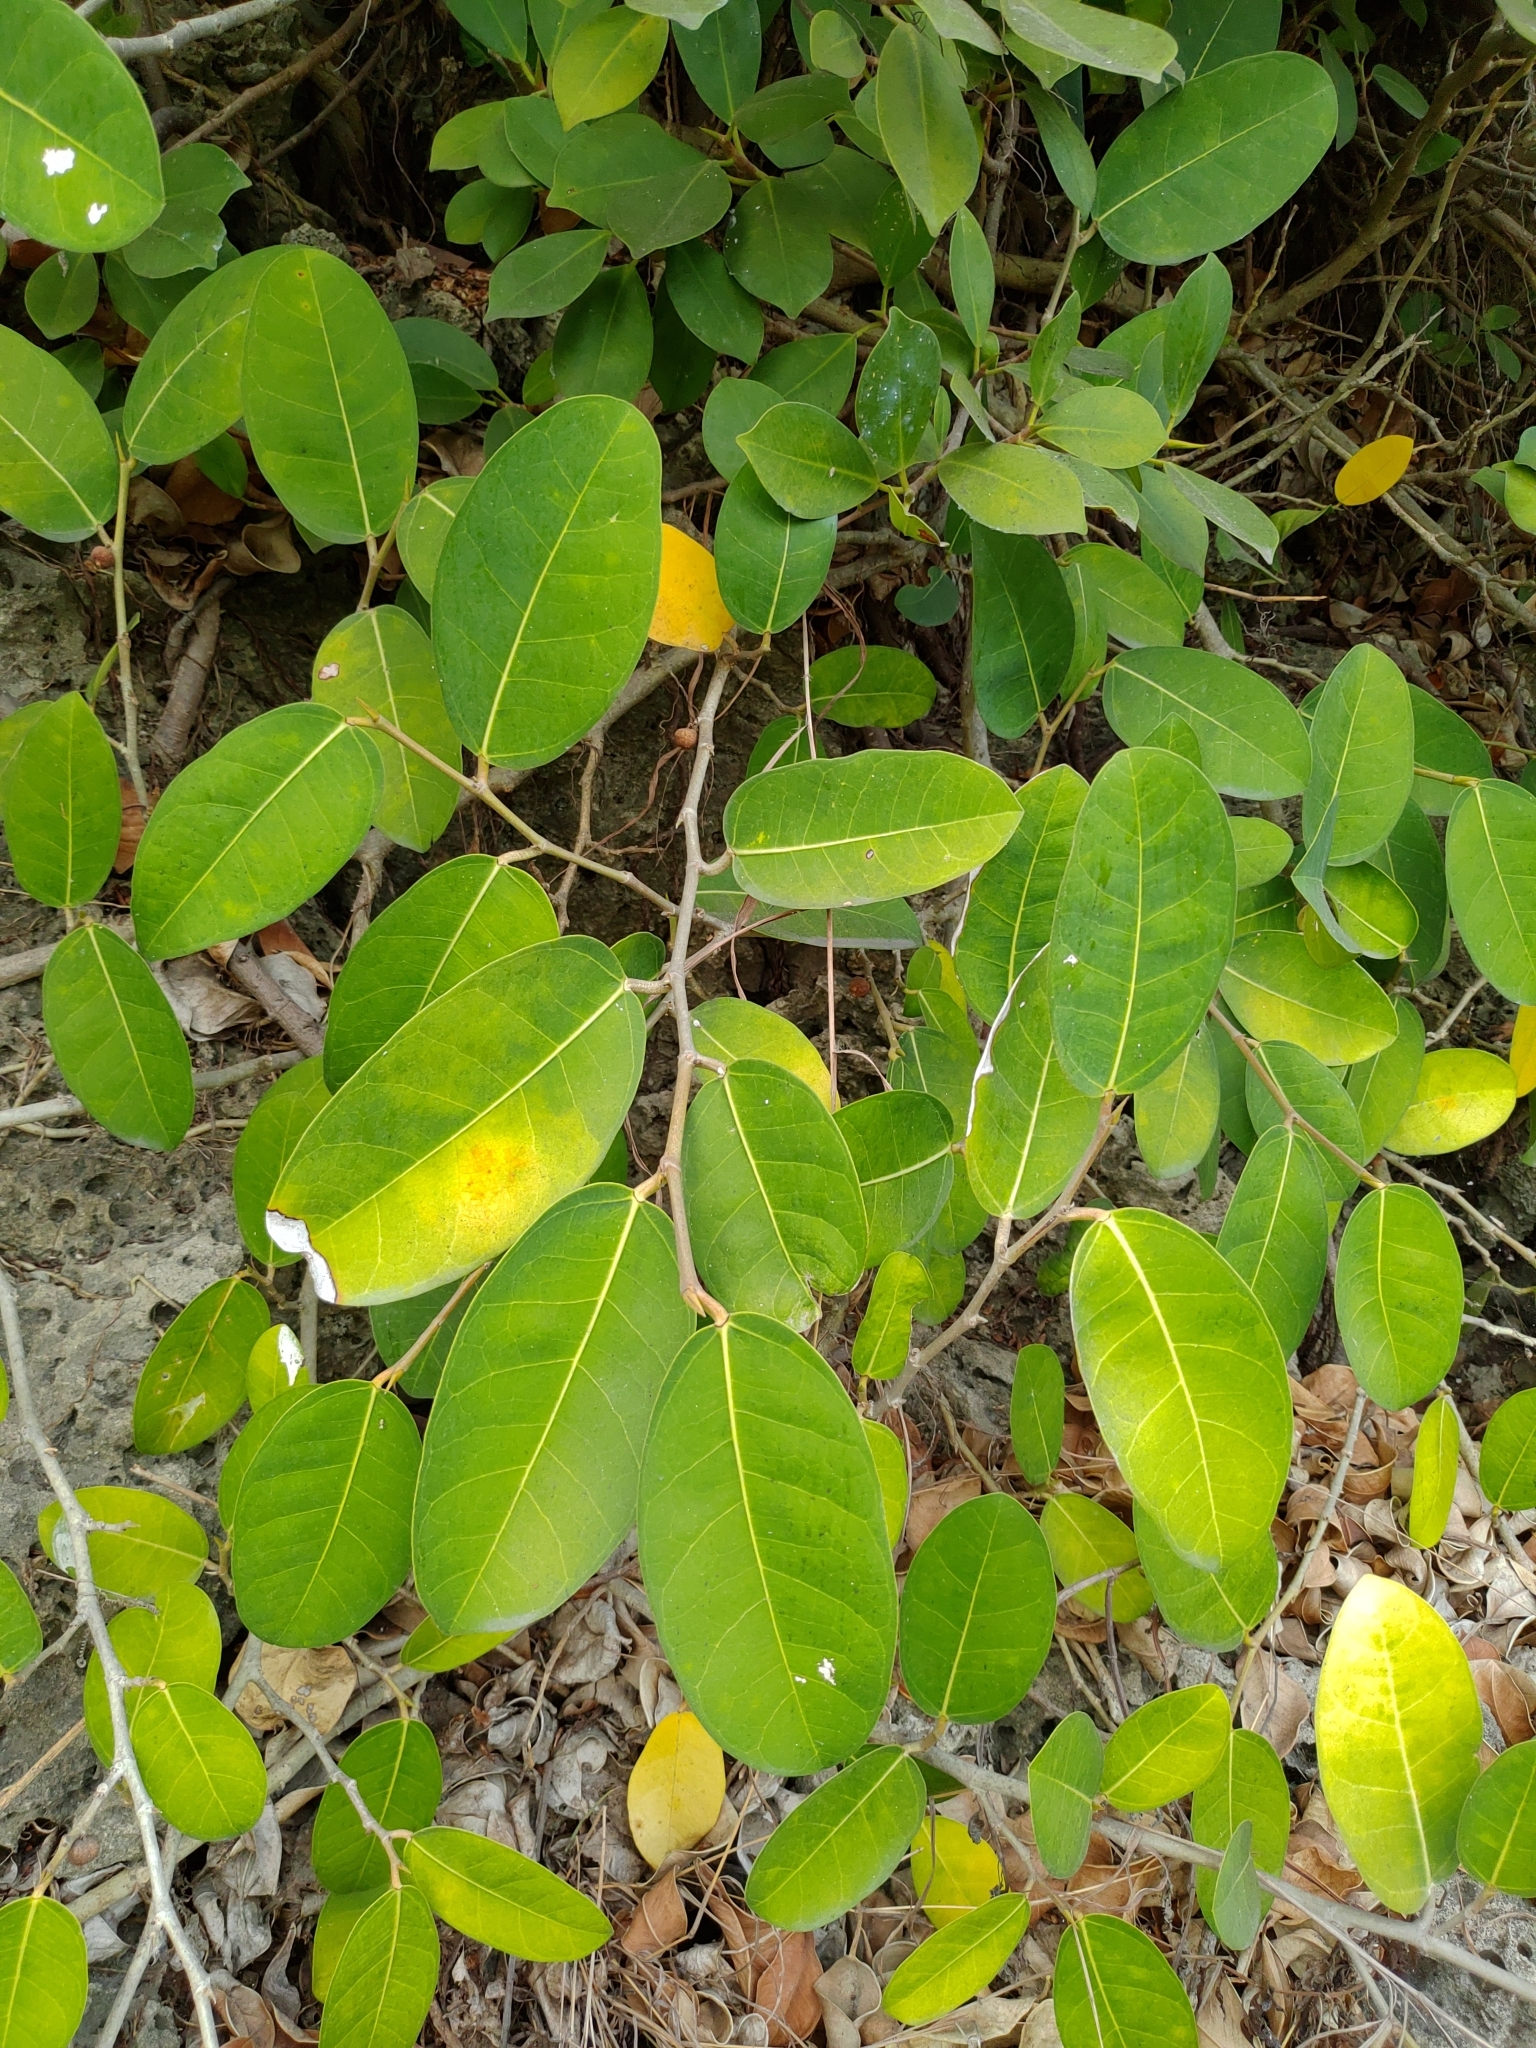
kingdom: Plantae
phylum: Tracheophyta
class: Magnoliopsida
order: Rosales
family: Moraceae
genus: Ficus
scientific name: Ficus tinctoria
